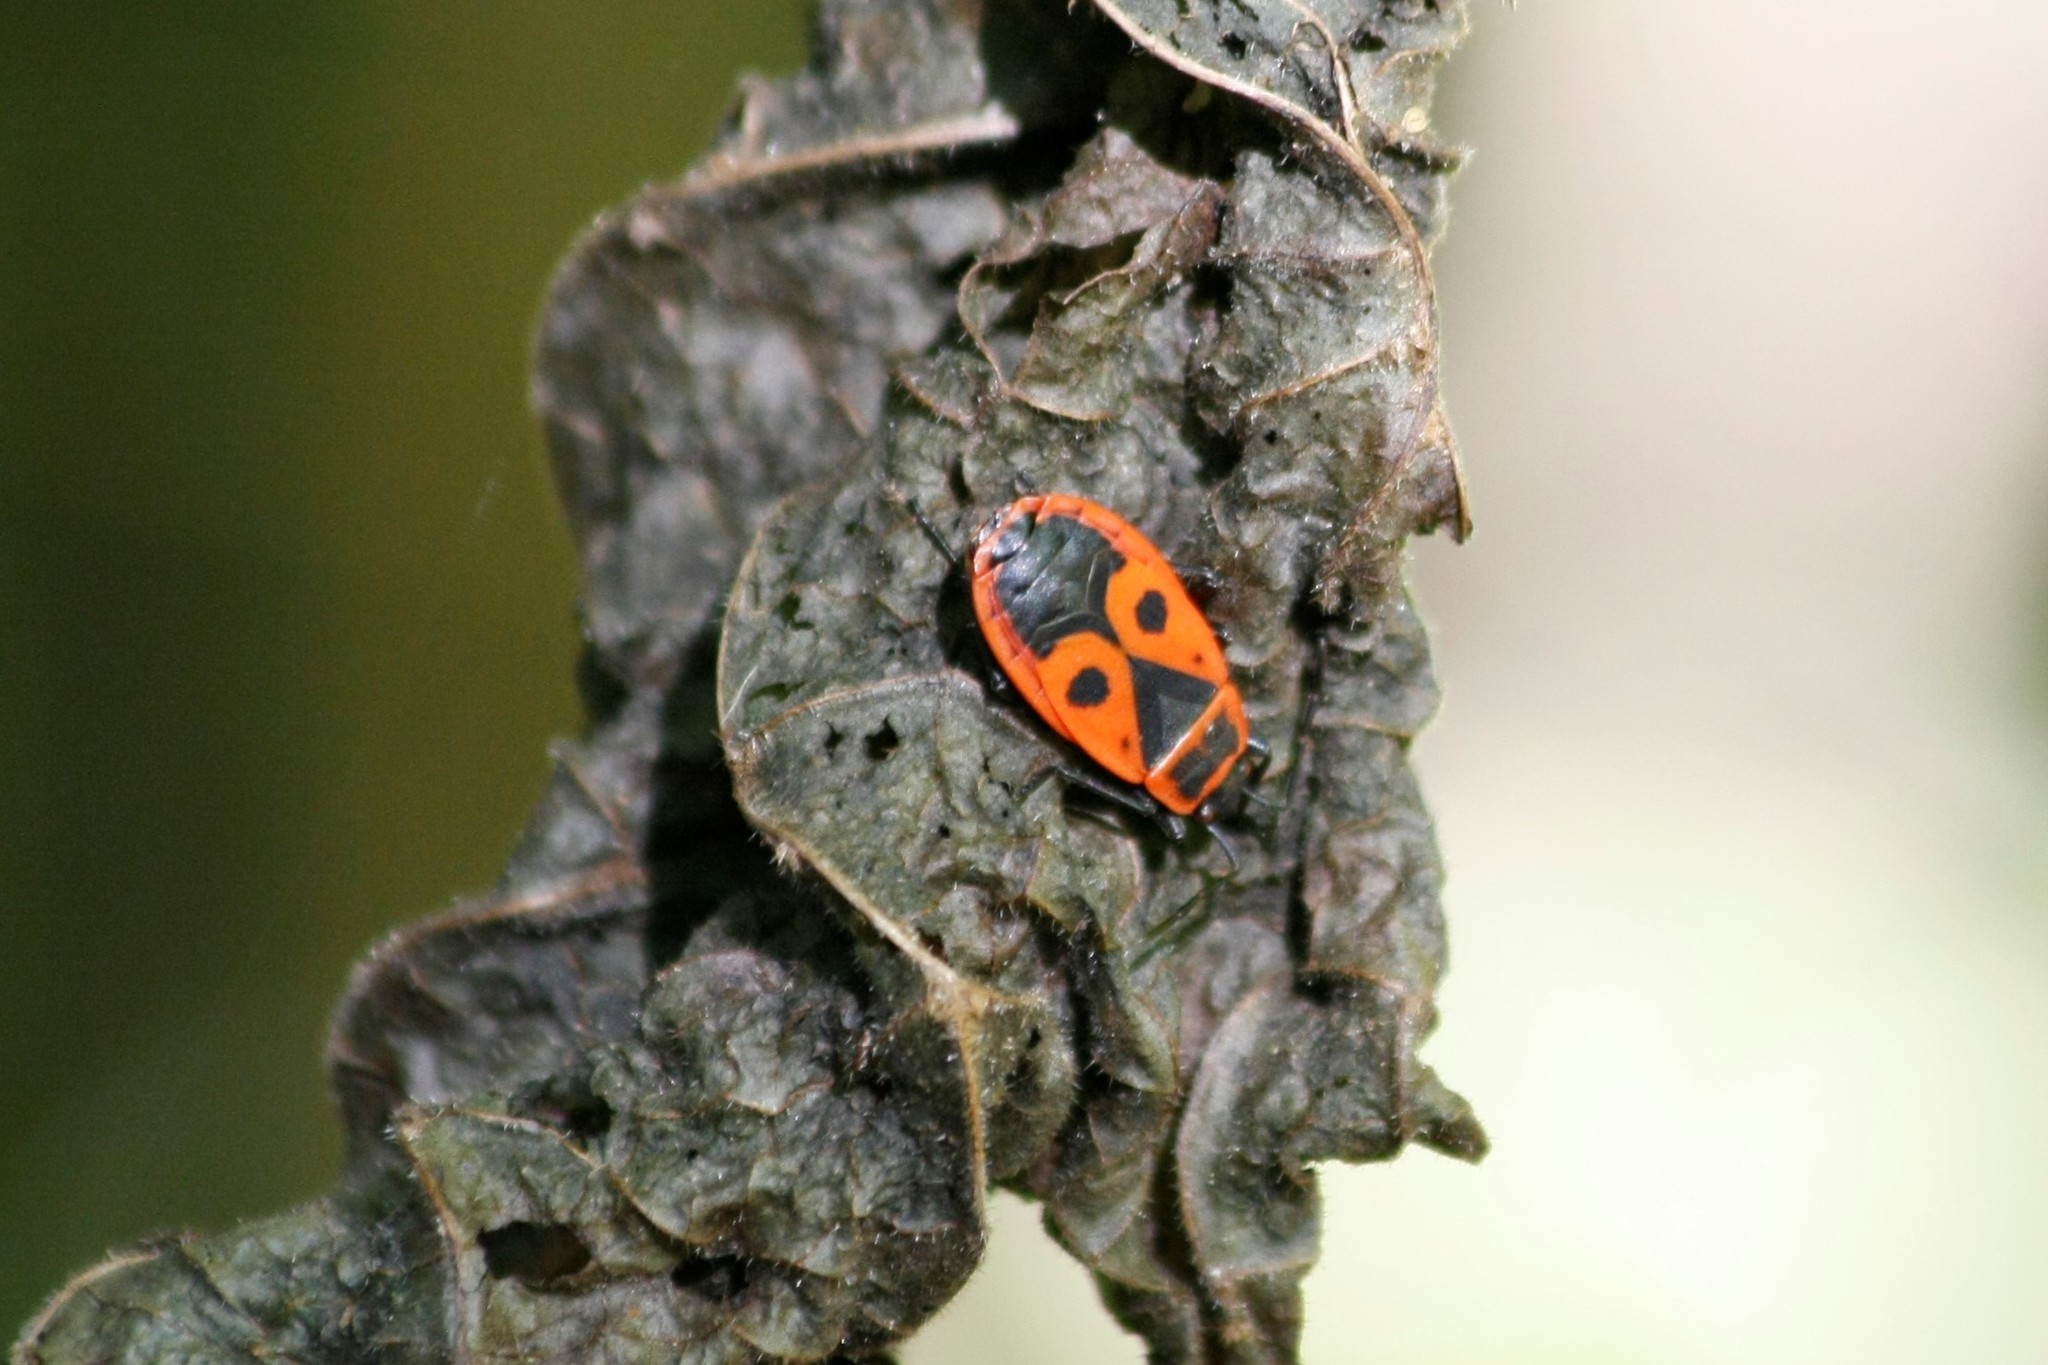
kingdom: Animalia
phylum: Arthropoda
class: Insecta
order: Hemiptera
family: Pyrrhocoridae
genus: Pyrrhocoris
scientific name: Pyrrhocoris apterus
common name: Firebug
